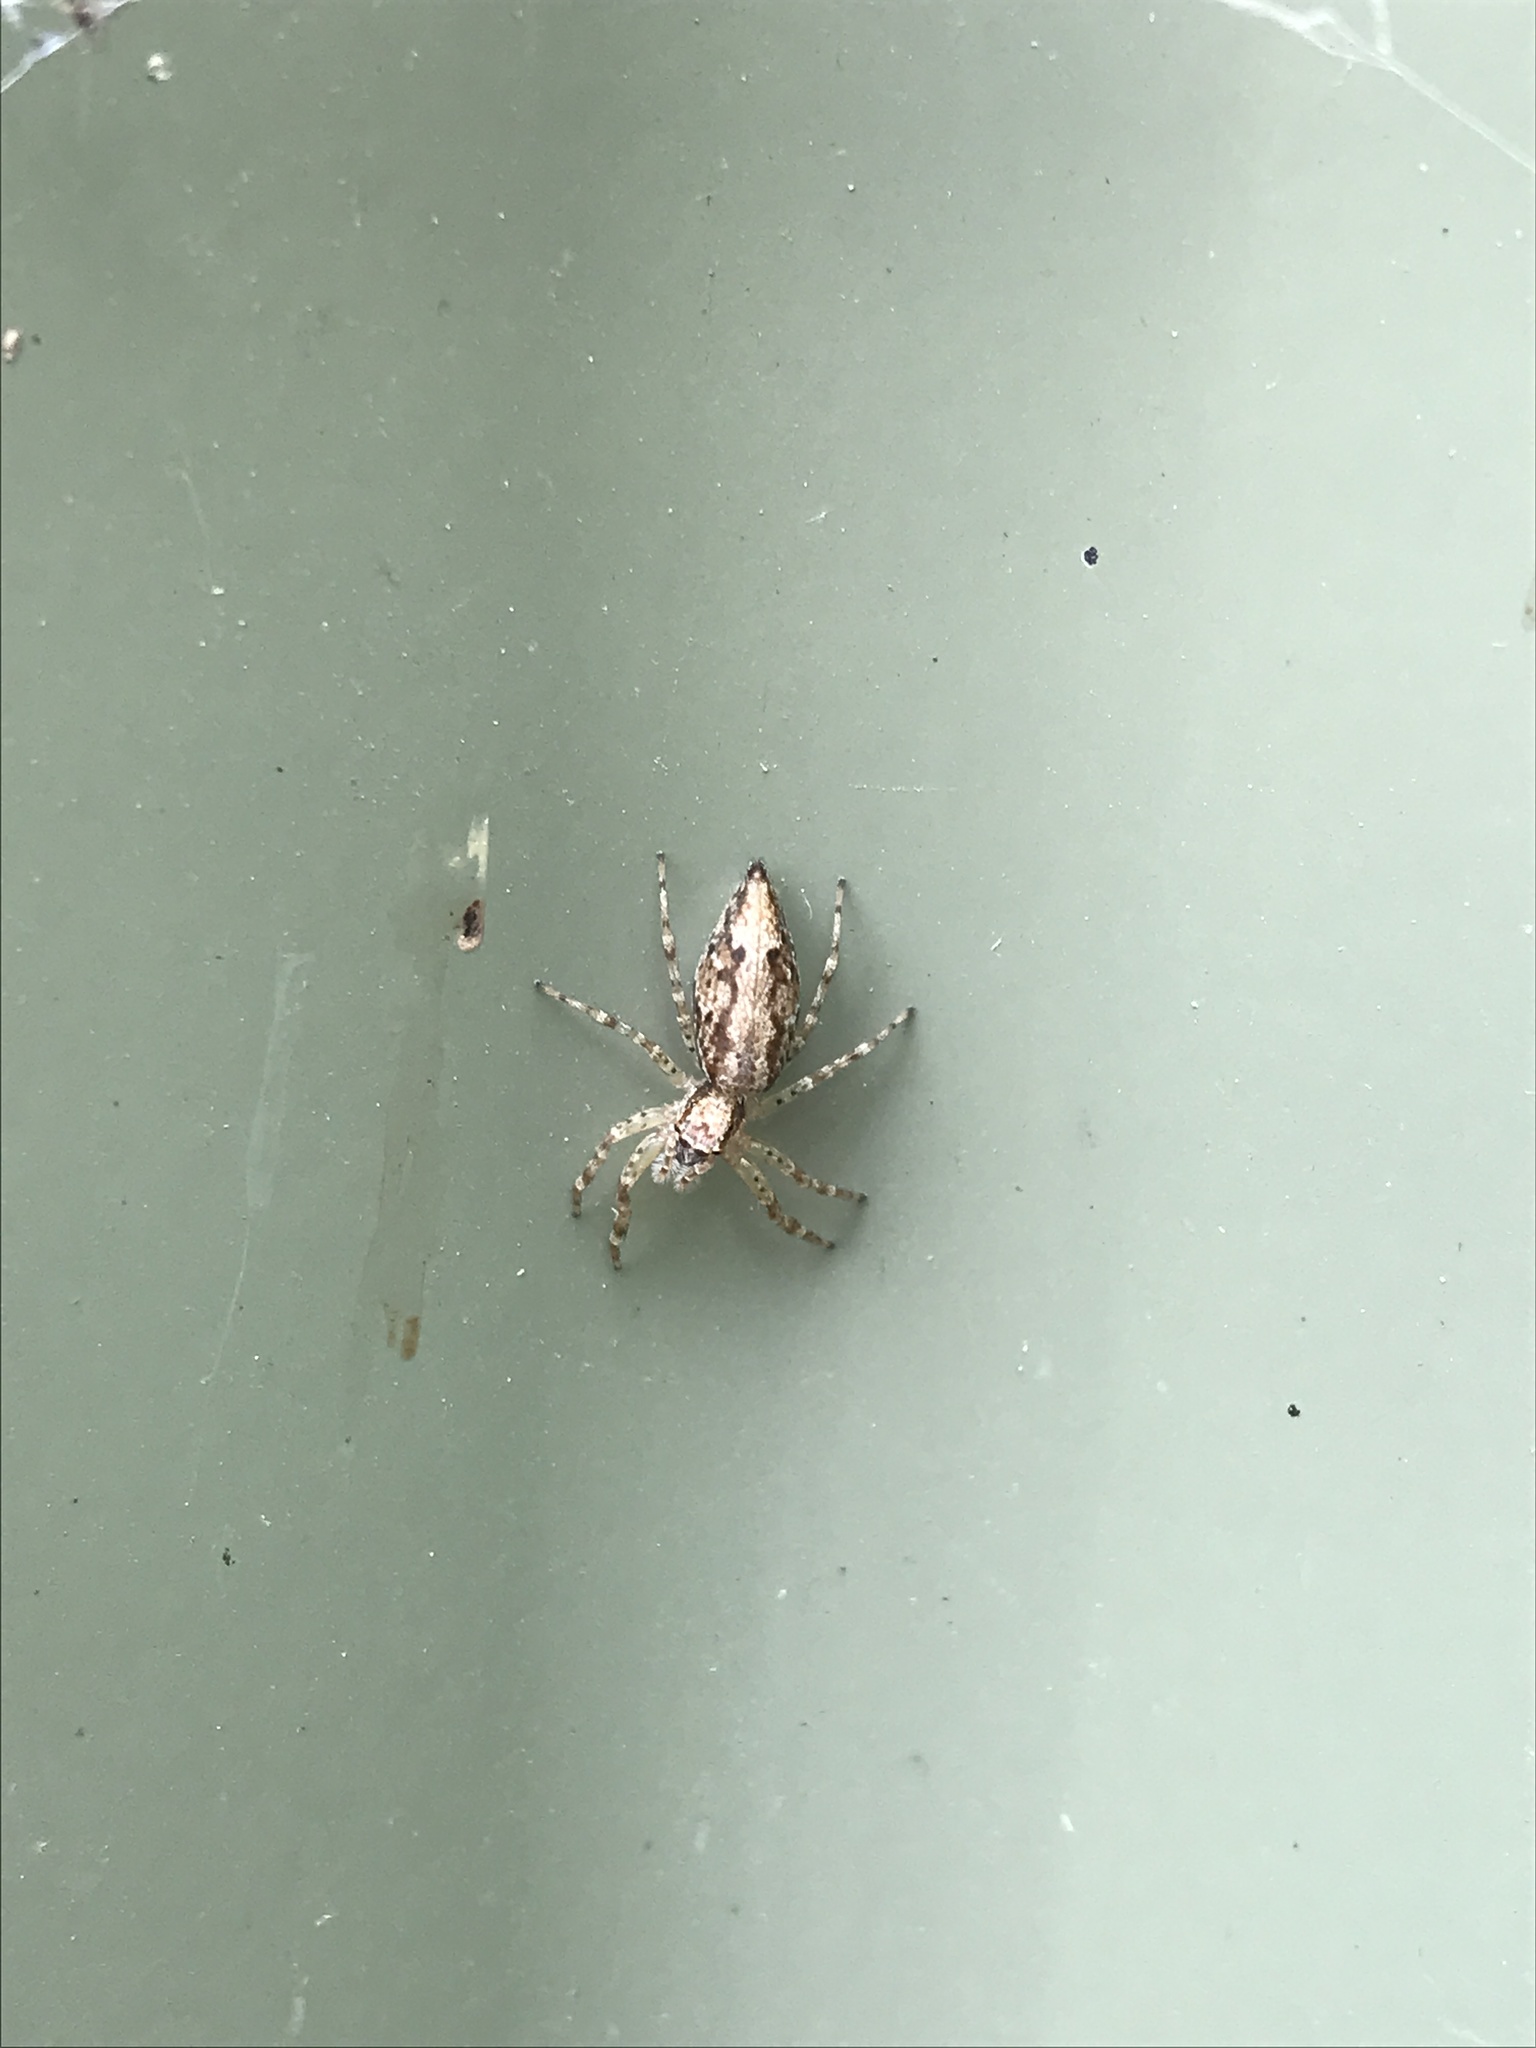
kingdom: Animalia
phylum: Arthropoda
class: Arachnida
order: Araneae
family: Salticidae
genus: Helpis
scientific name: Helpis minitabunda
